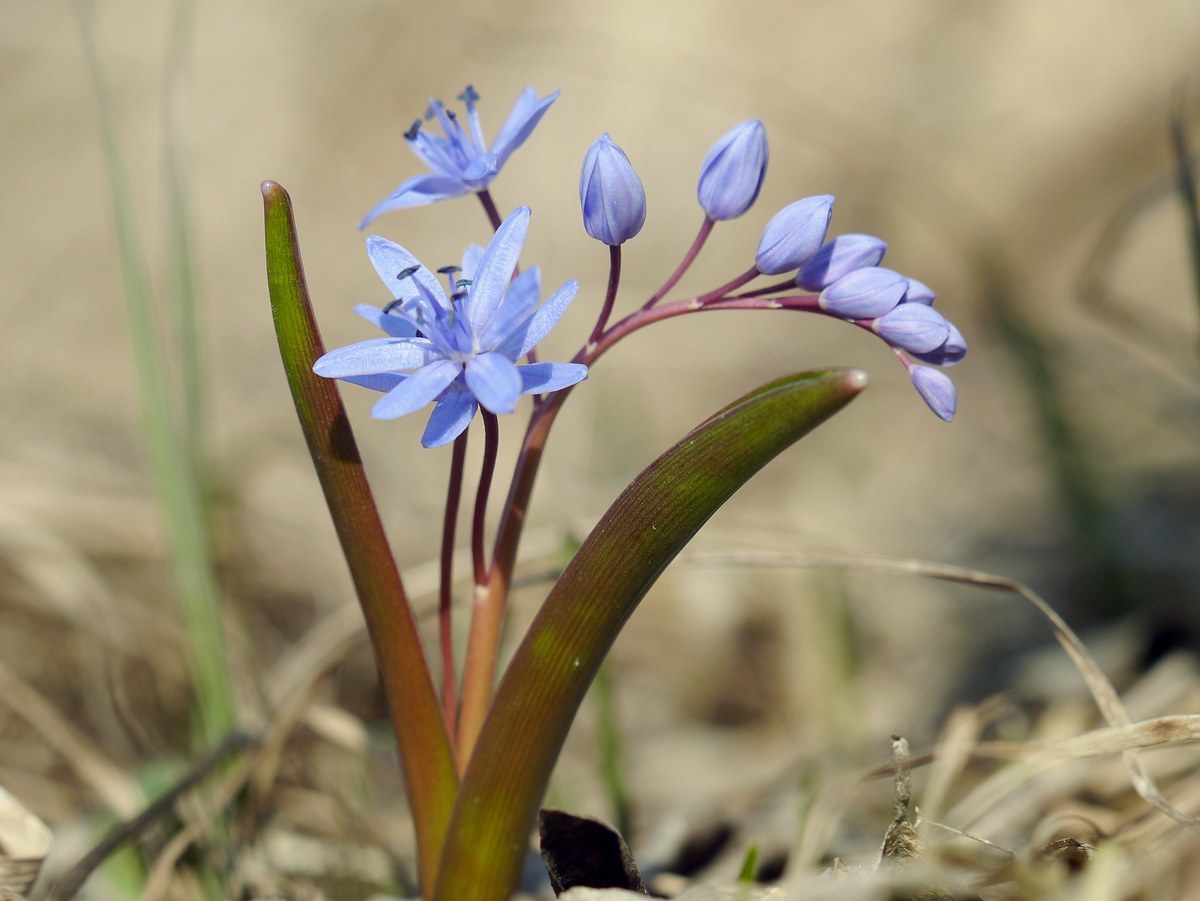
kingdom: Plantae
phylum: Tracheophyta
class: Liliopsida
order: Asparagales
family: Asparagaceae
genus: Scilla
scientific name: Scilla bifolia
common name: Alpine squill
